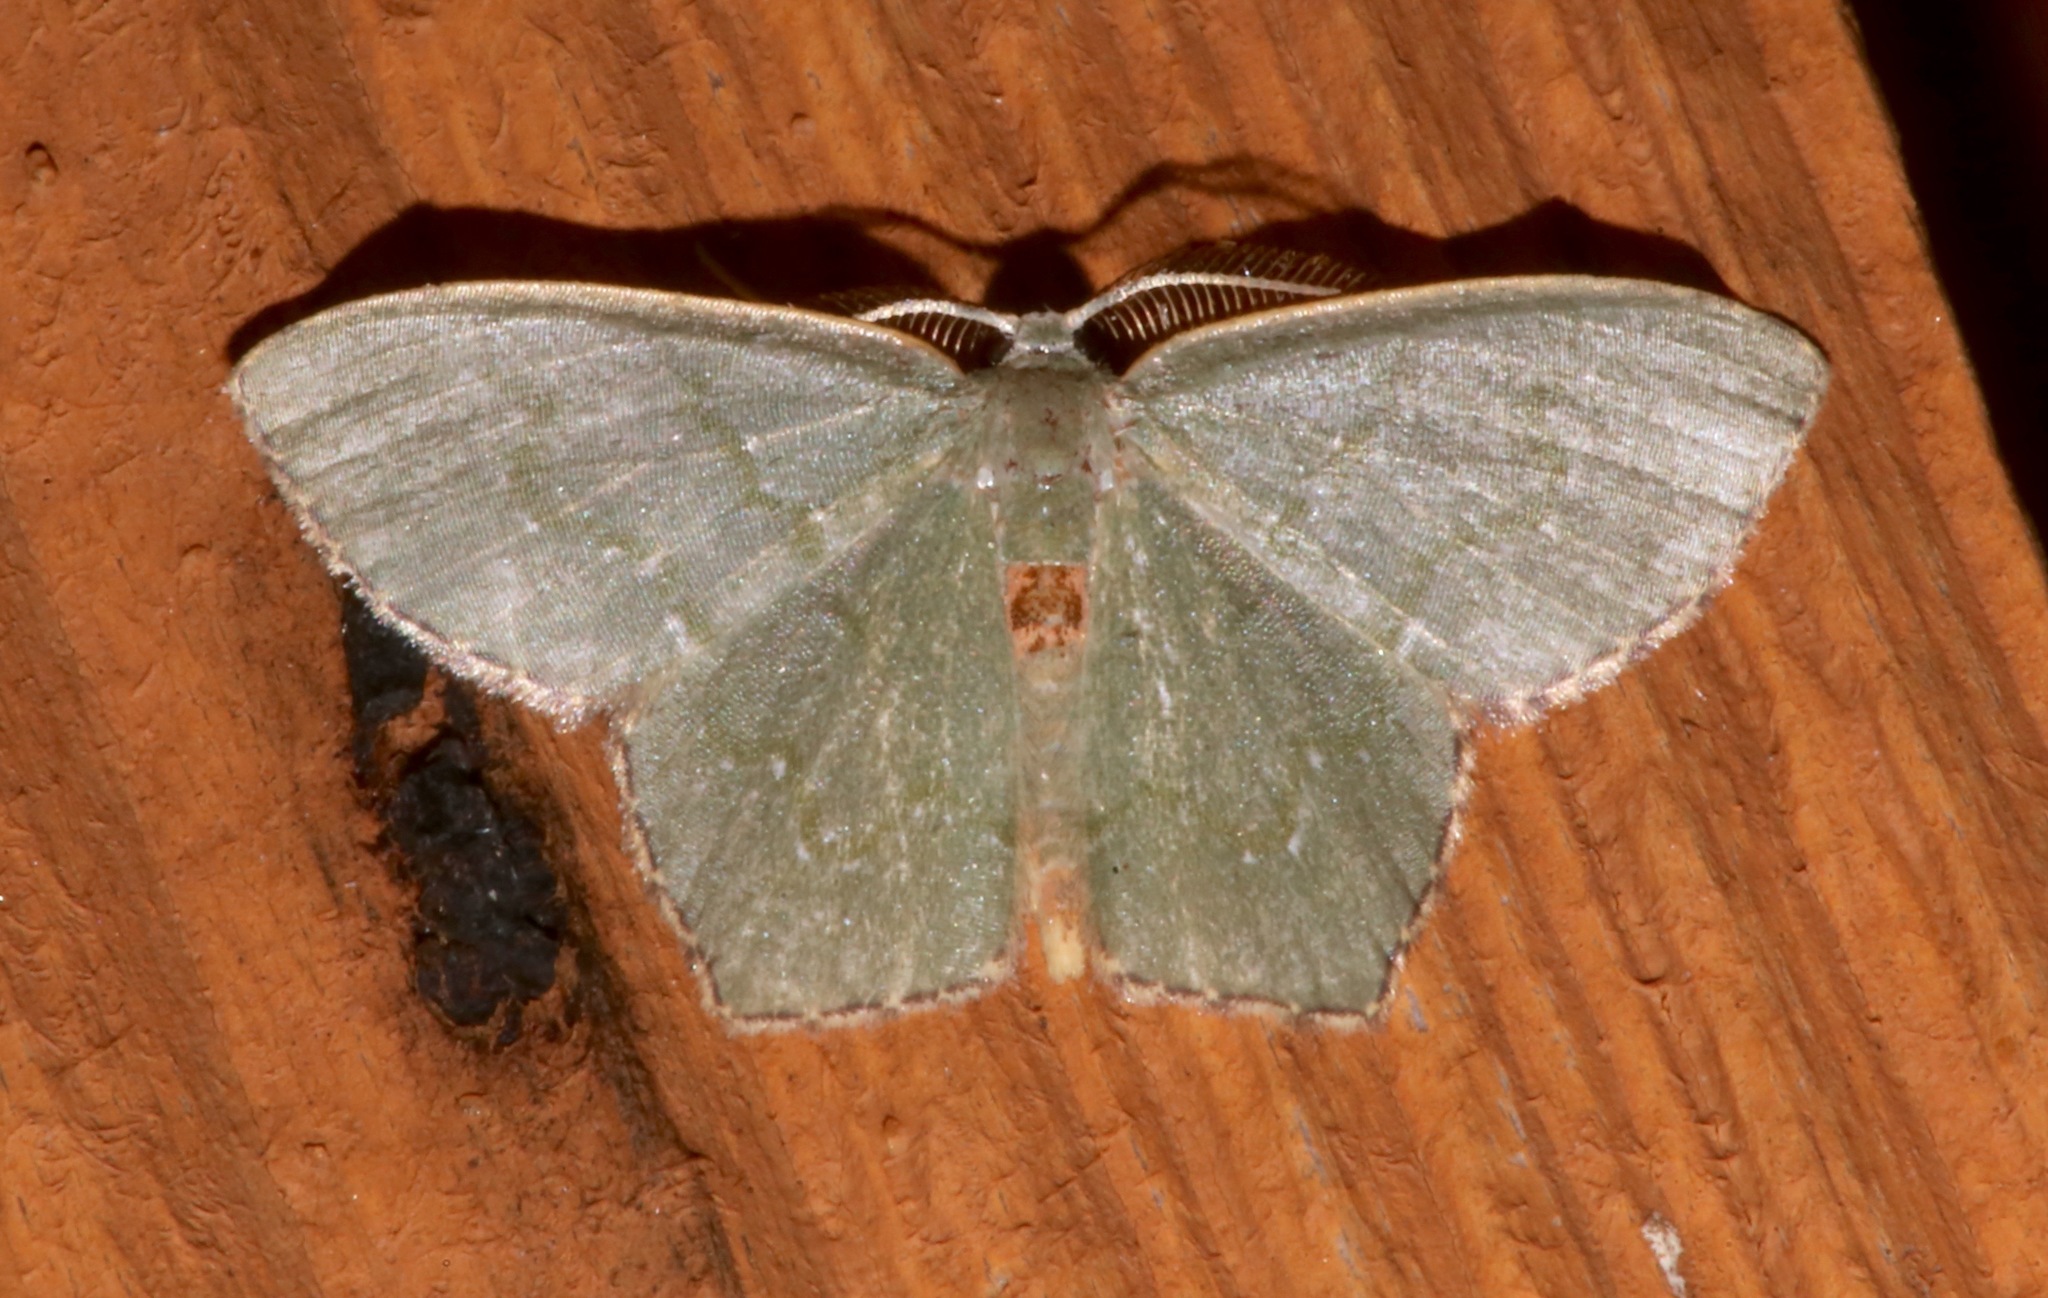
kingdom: Animalia
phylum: Arthropoda
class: Insecta
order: Lepidoptera
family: Geometridae
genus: Chloropteryx
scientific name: Chloropteryx tepperaria
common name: Angle winged emerald moth
